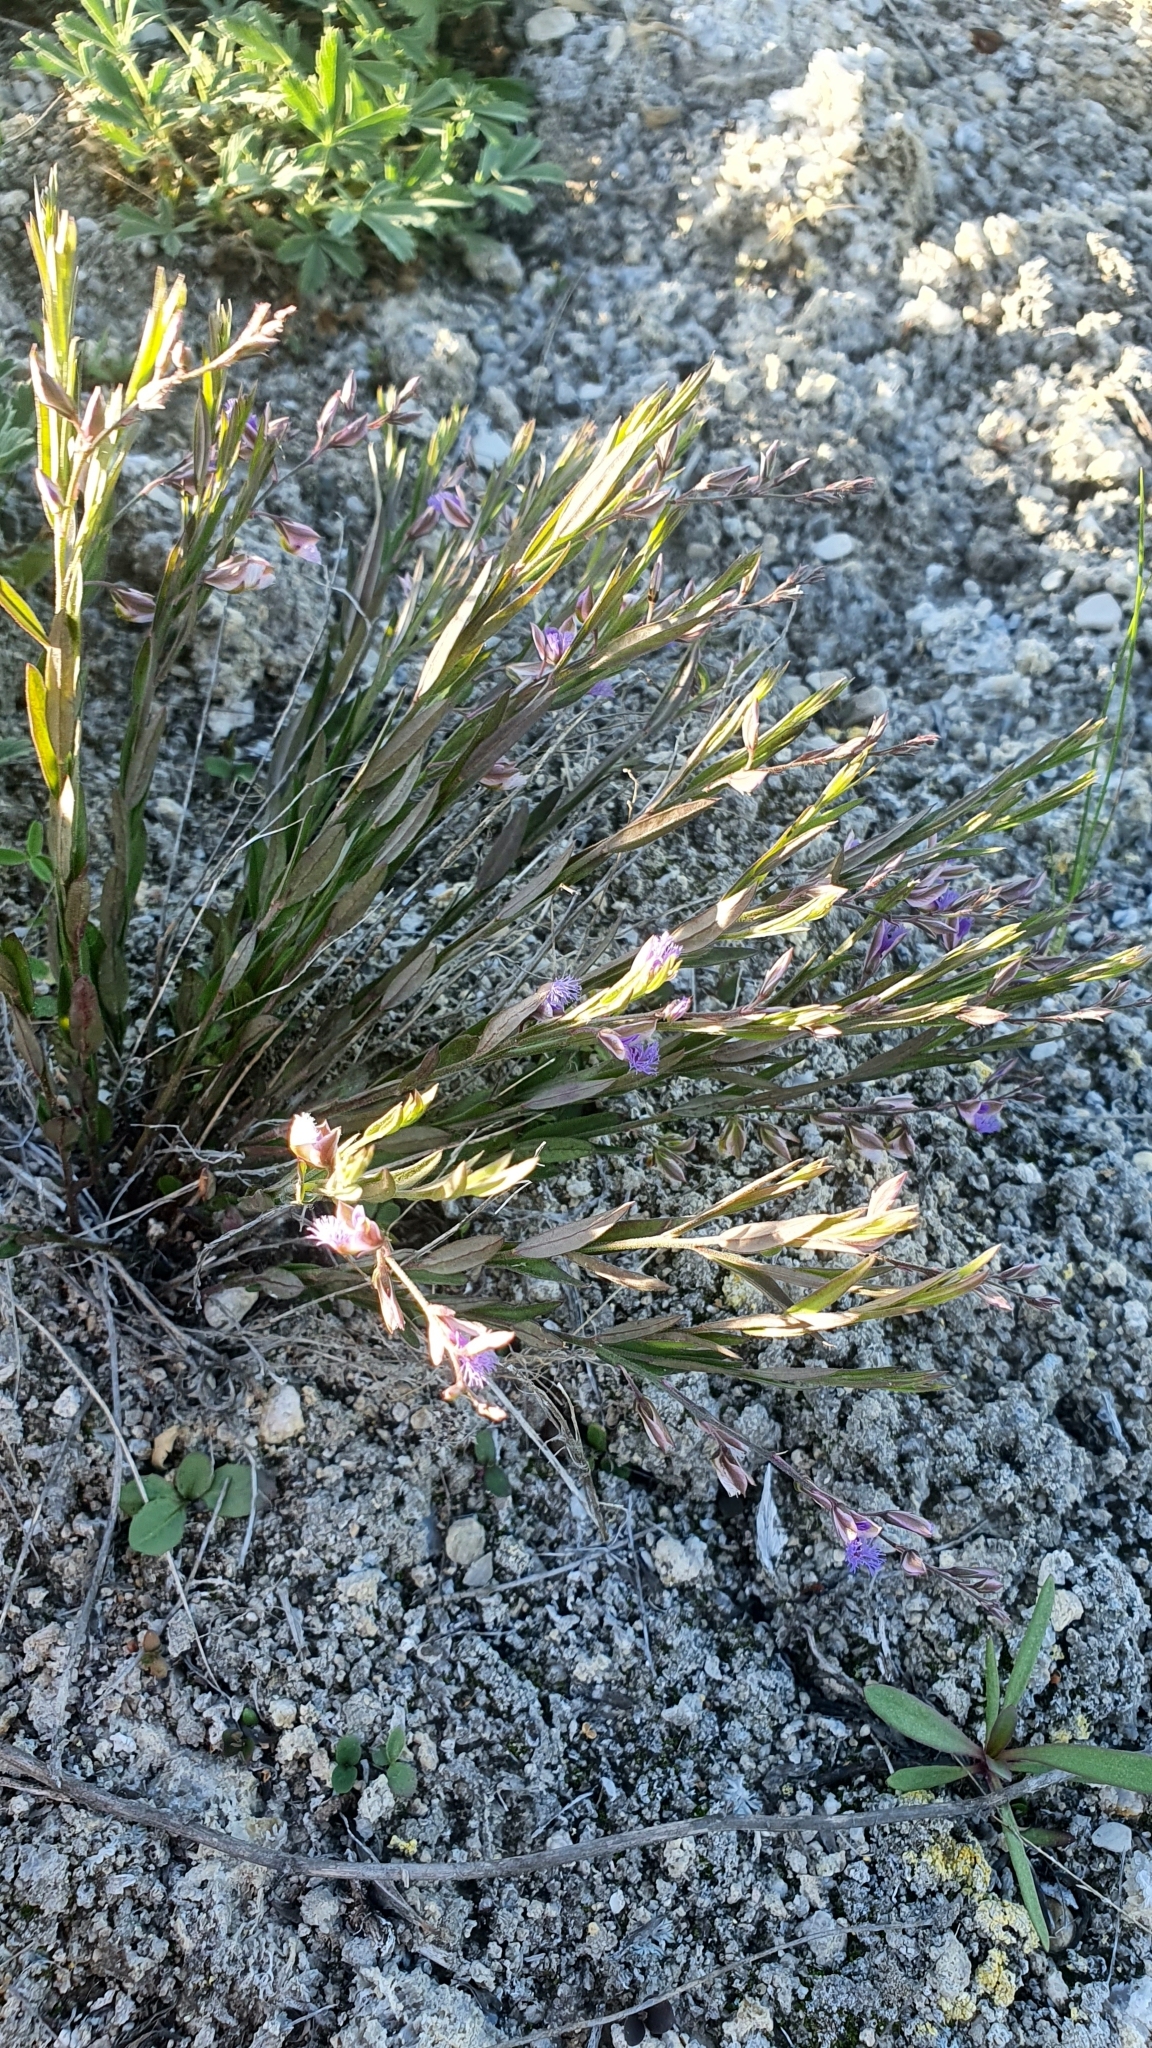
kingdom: Plantae
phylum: Tracheophyta
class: Magnoliopsida
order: Fabales
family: Polygalaceae
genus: Polygala
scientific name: Polygala sibirica
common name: Siberian polygala
